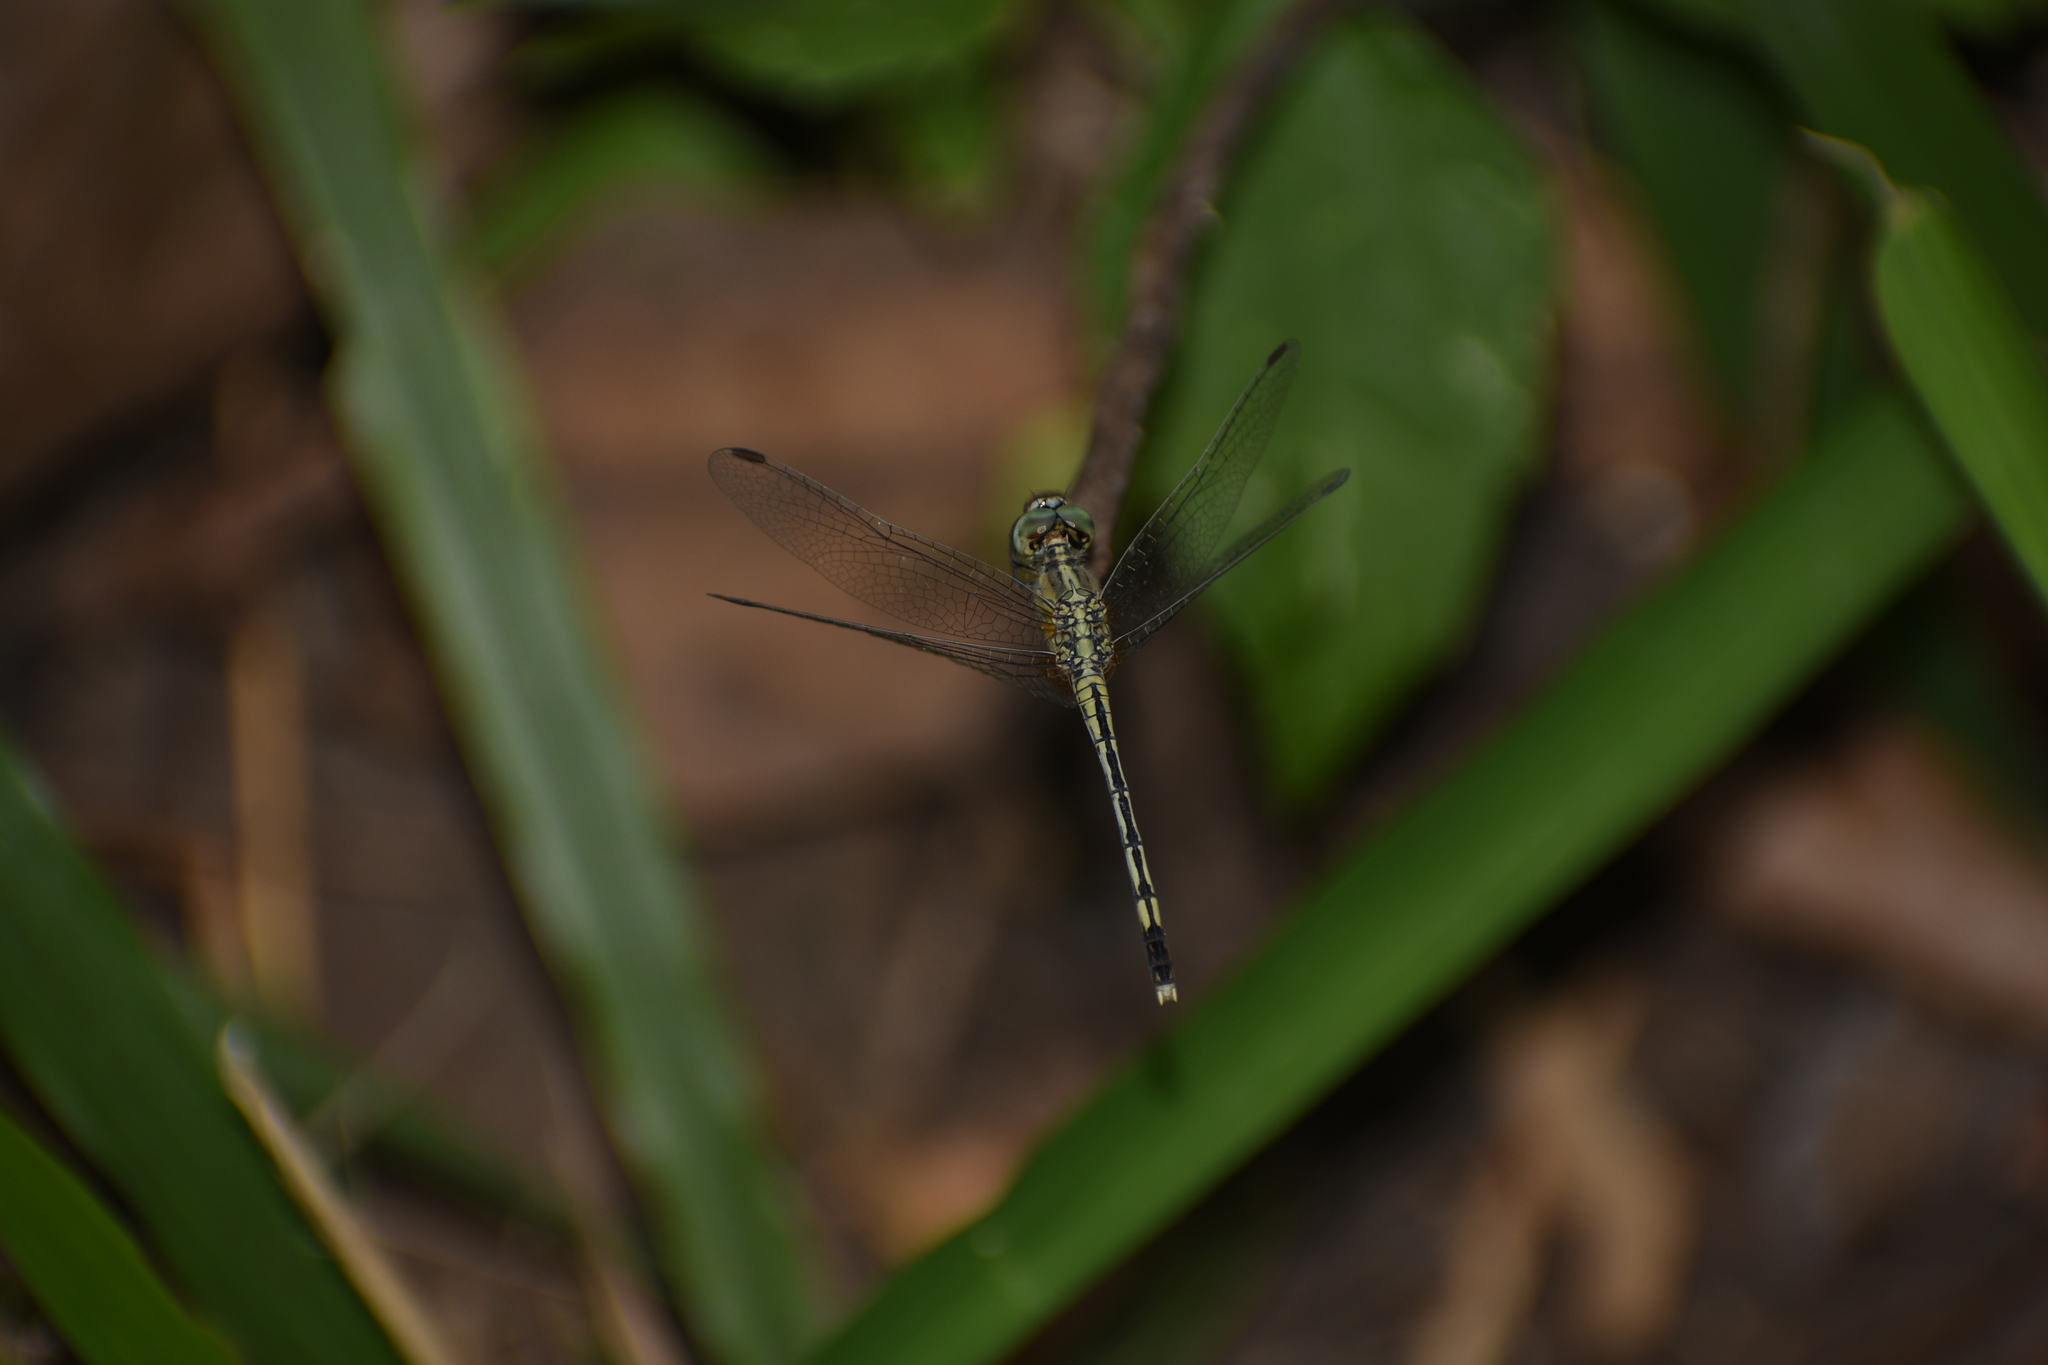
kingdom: Animalia
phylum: Arthropoda
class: Insecta
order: Odonata
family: Libellulidae
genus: Diplacodes
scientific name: Diplacodes trivialis
